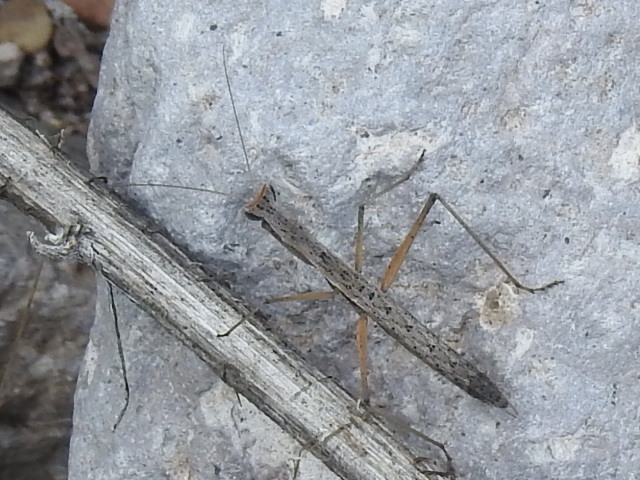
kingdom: Animalia
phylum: Arthropoda
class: Insecta
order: Mantodea
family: Amelidae
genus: Yersiniops
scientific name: Yersiniops solitarius
